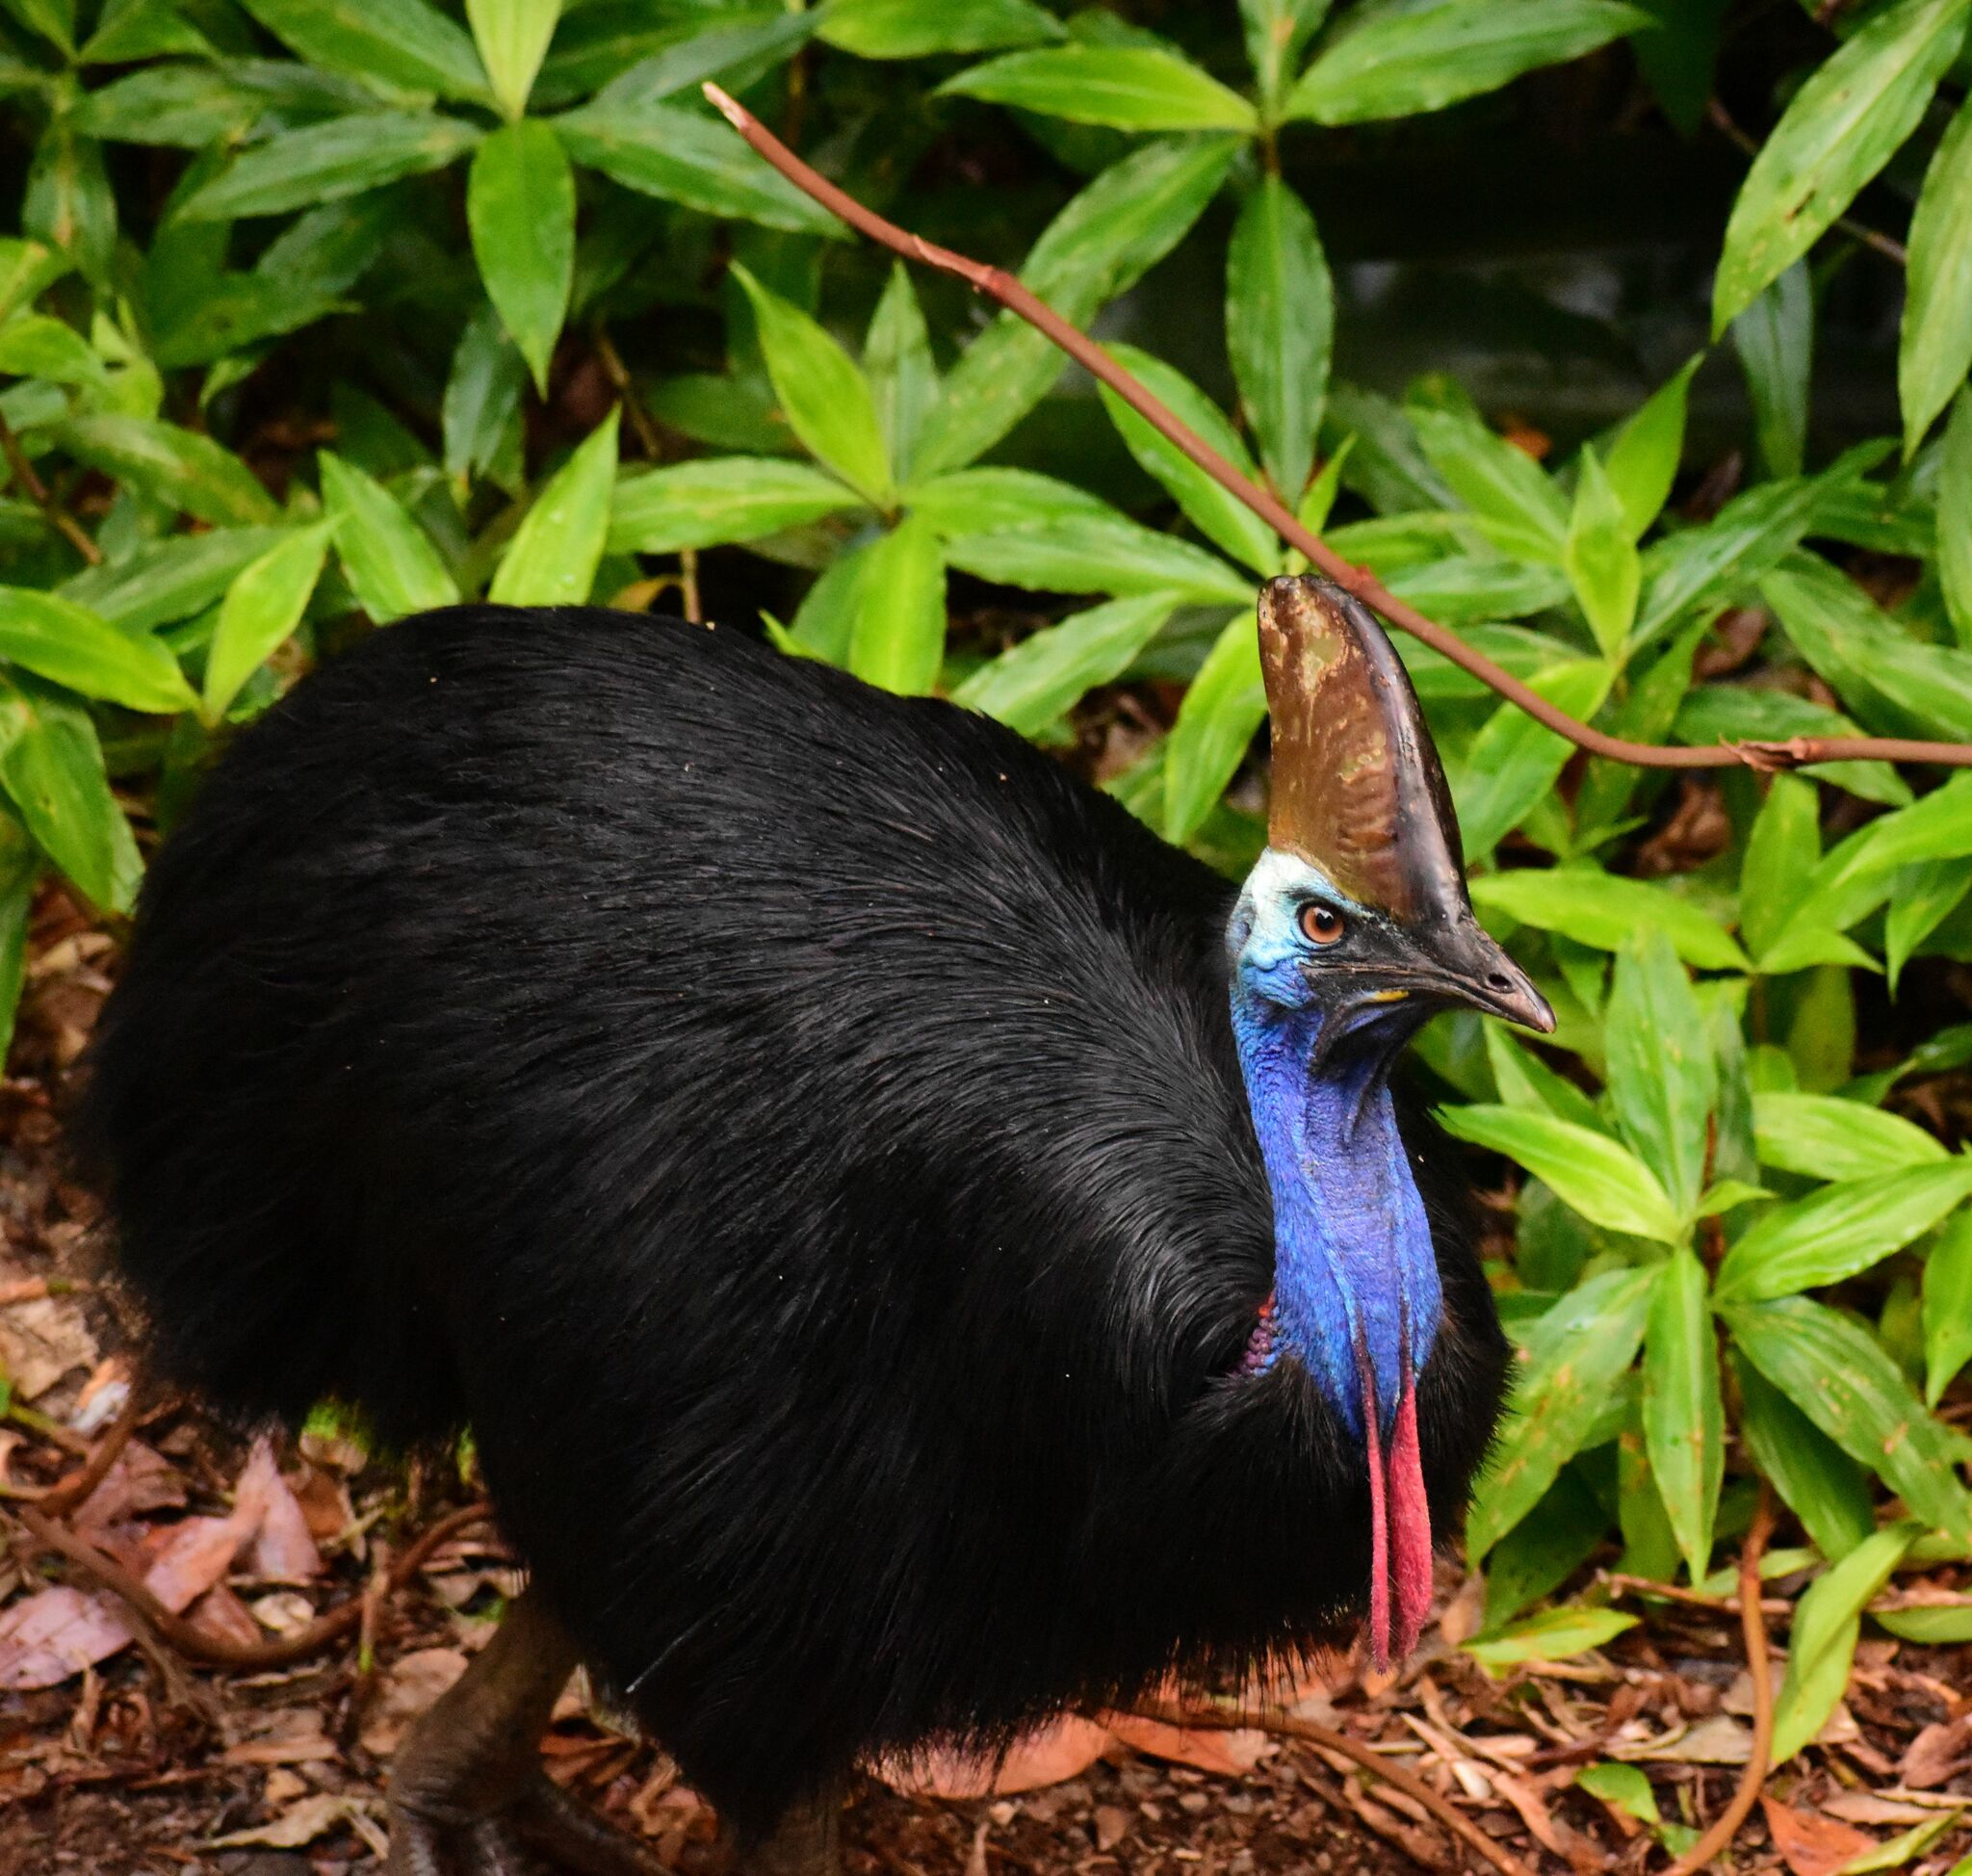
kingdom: Animalia
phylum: Chordata
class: Aves
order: Casuariiformes
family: Casuariidae
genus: Casuarius
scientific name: Casuarius casuarius
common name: Southern cassowary
